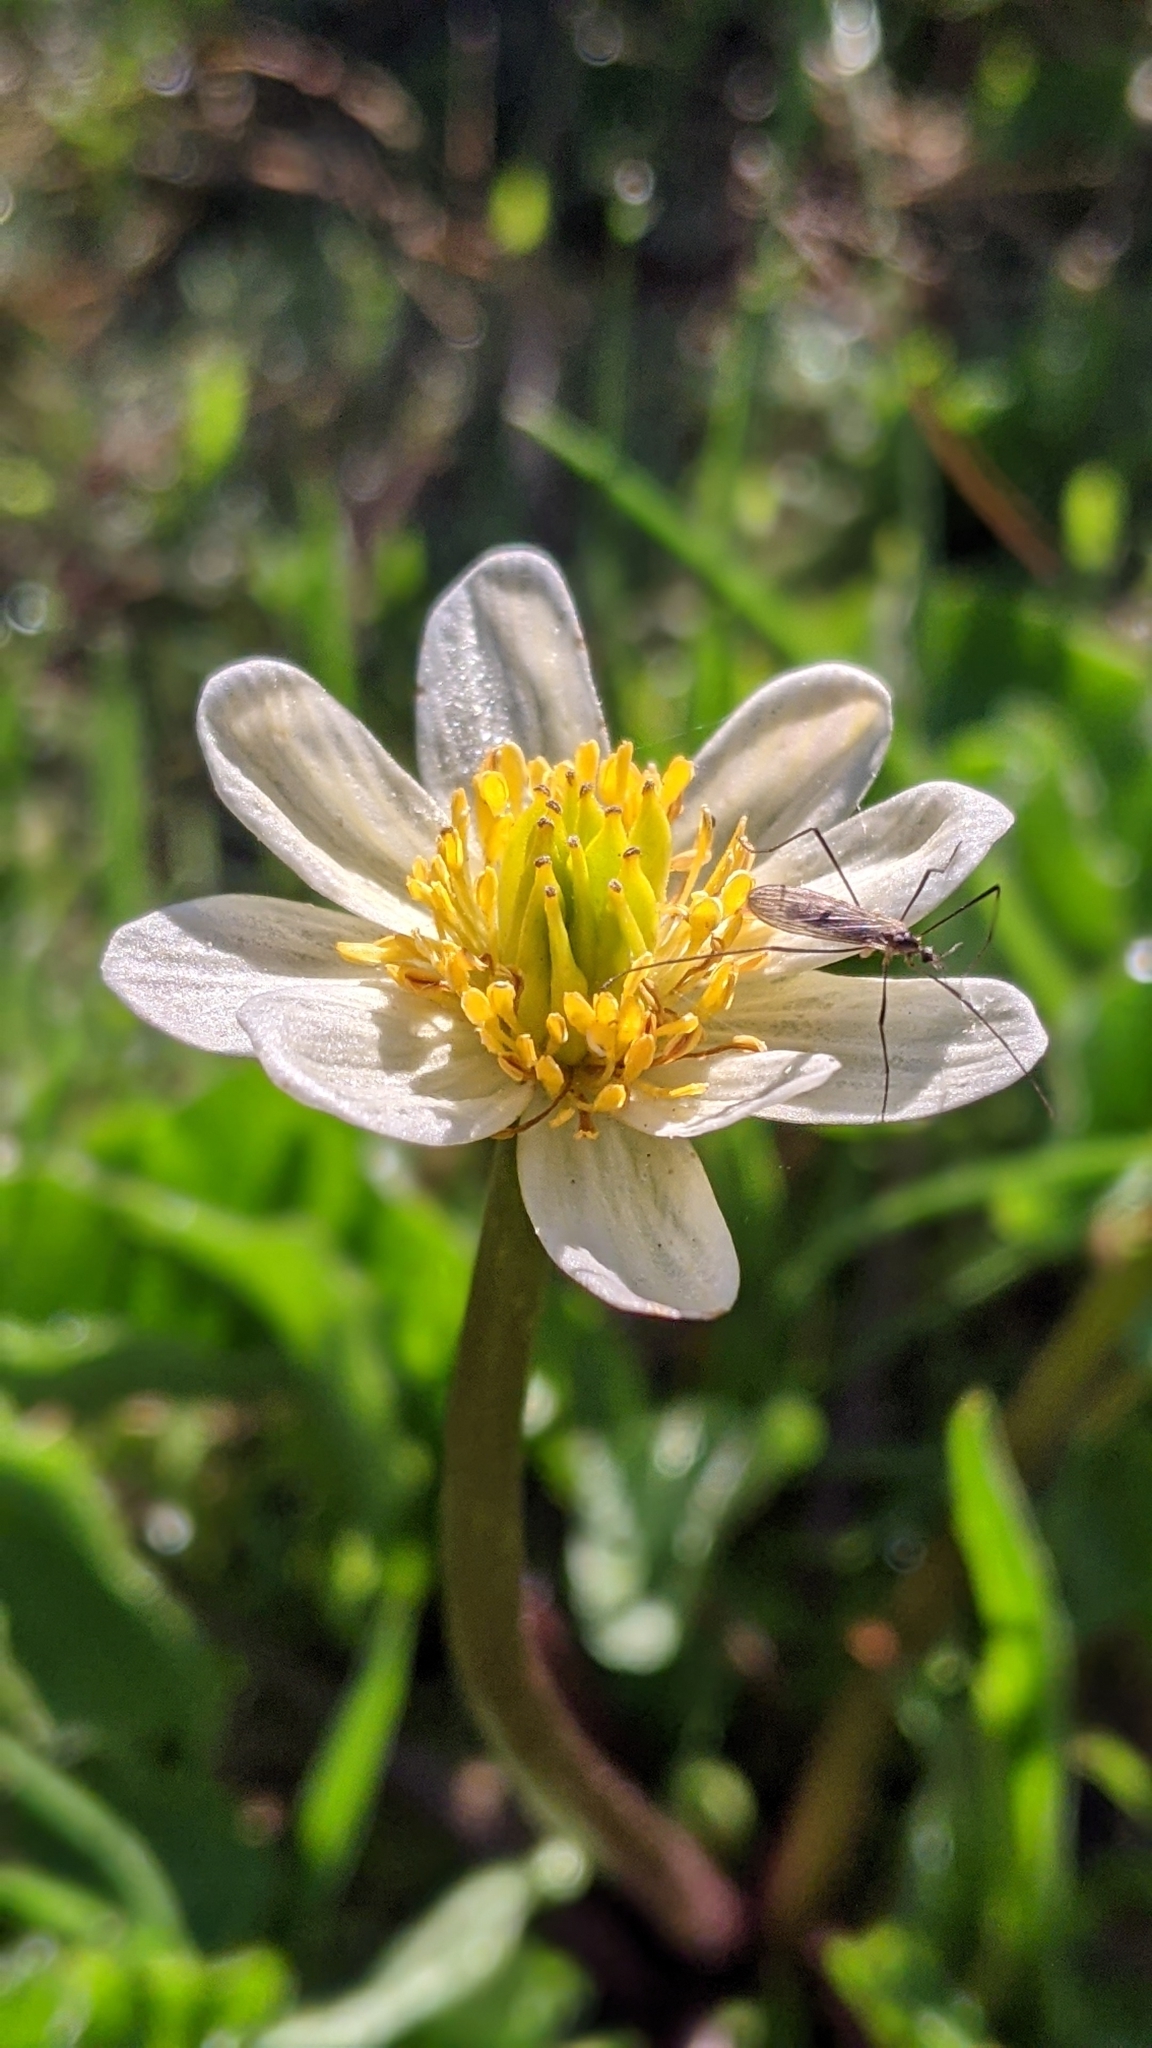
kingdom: Plantae
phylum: Tracheophyta
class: Magnoliopsida
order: Ranunculales
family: Ranunculaceae
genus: Caltha
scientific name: Caltha leptosepala
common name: Elkslip
